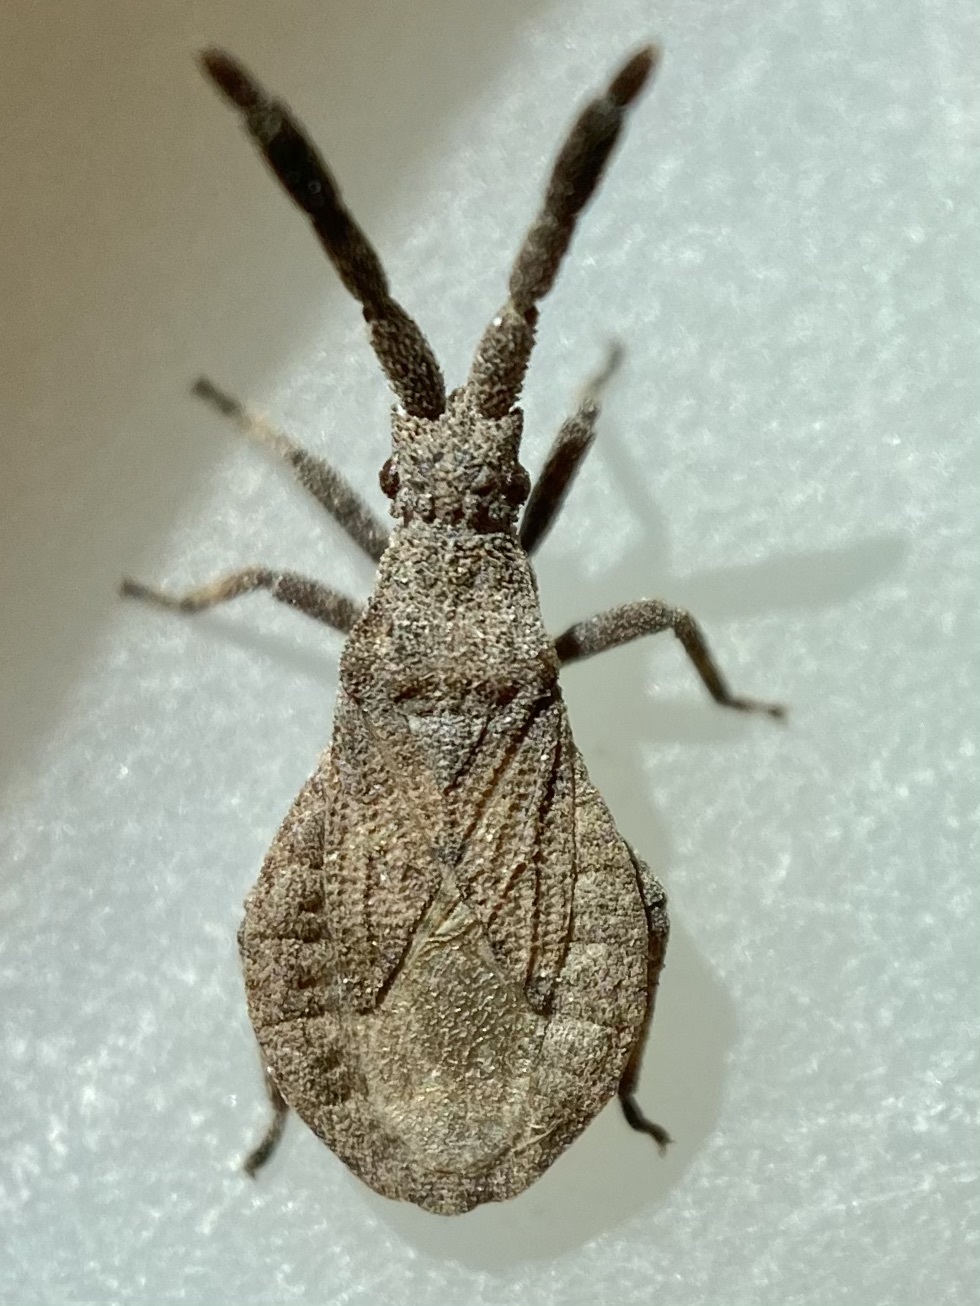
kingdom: Animalia
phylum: Arthropoda
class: Insecta
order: Hemiptera
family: Coreidae
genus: Scolopocerus
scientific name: Scolopocerus secundarius
